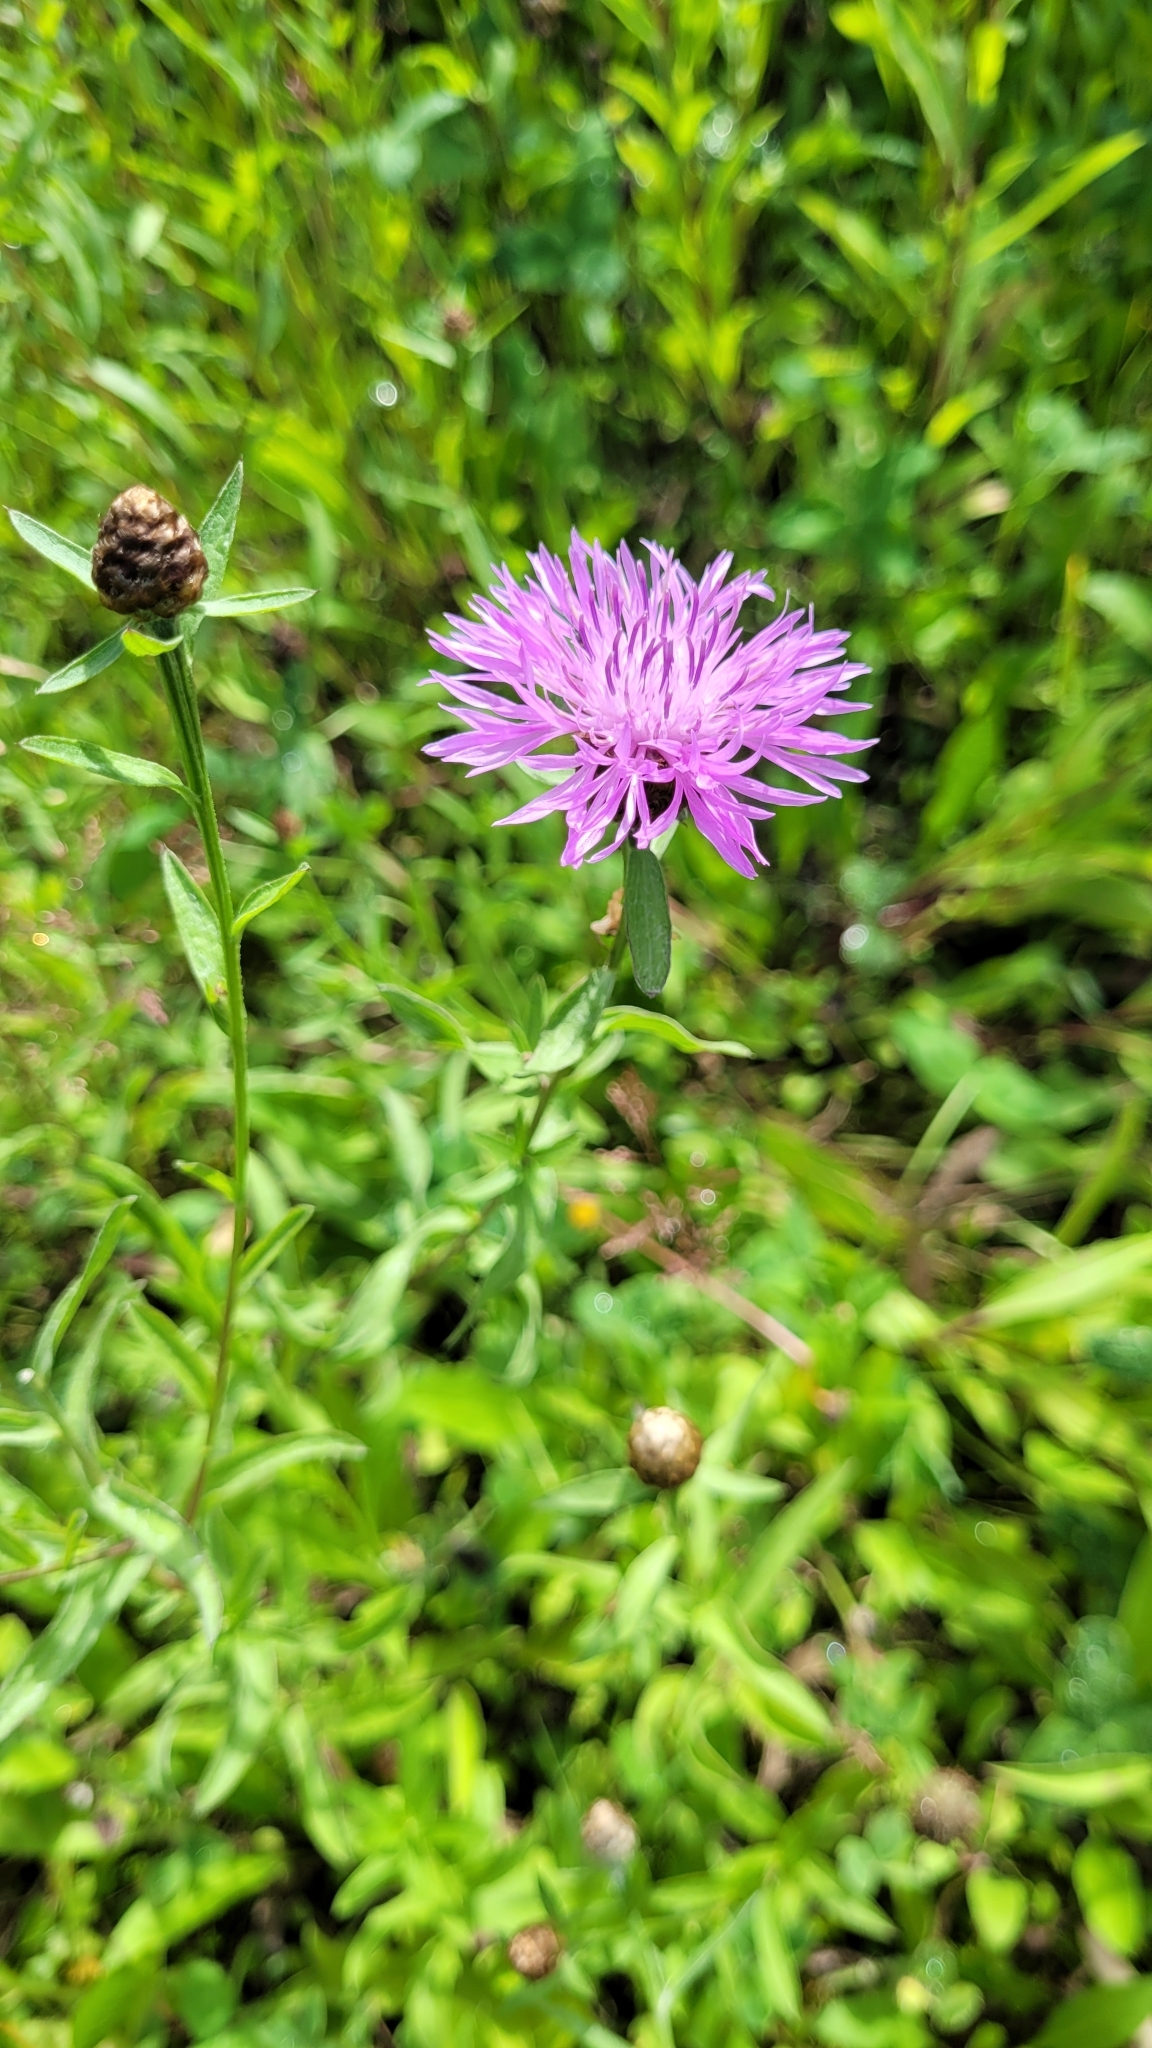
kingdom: Plantae
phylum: Tracheophyta
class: Magnoliopsida
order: Asterales
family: Asteraceae
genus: Centaurea
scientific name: Centaurea jacea
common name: Brown knapweed
